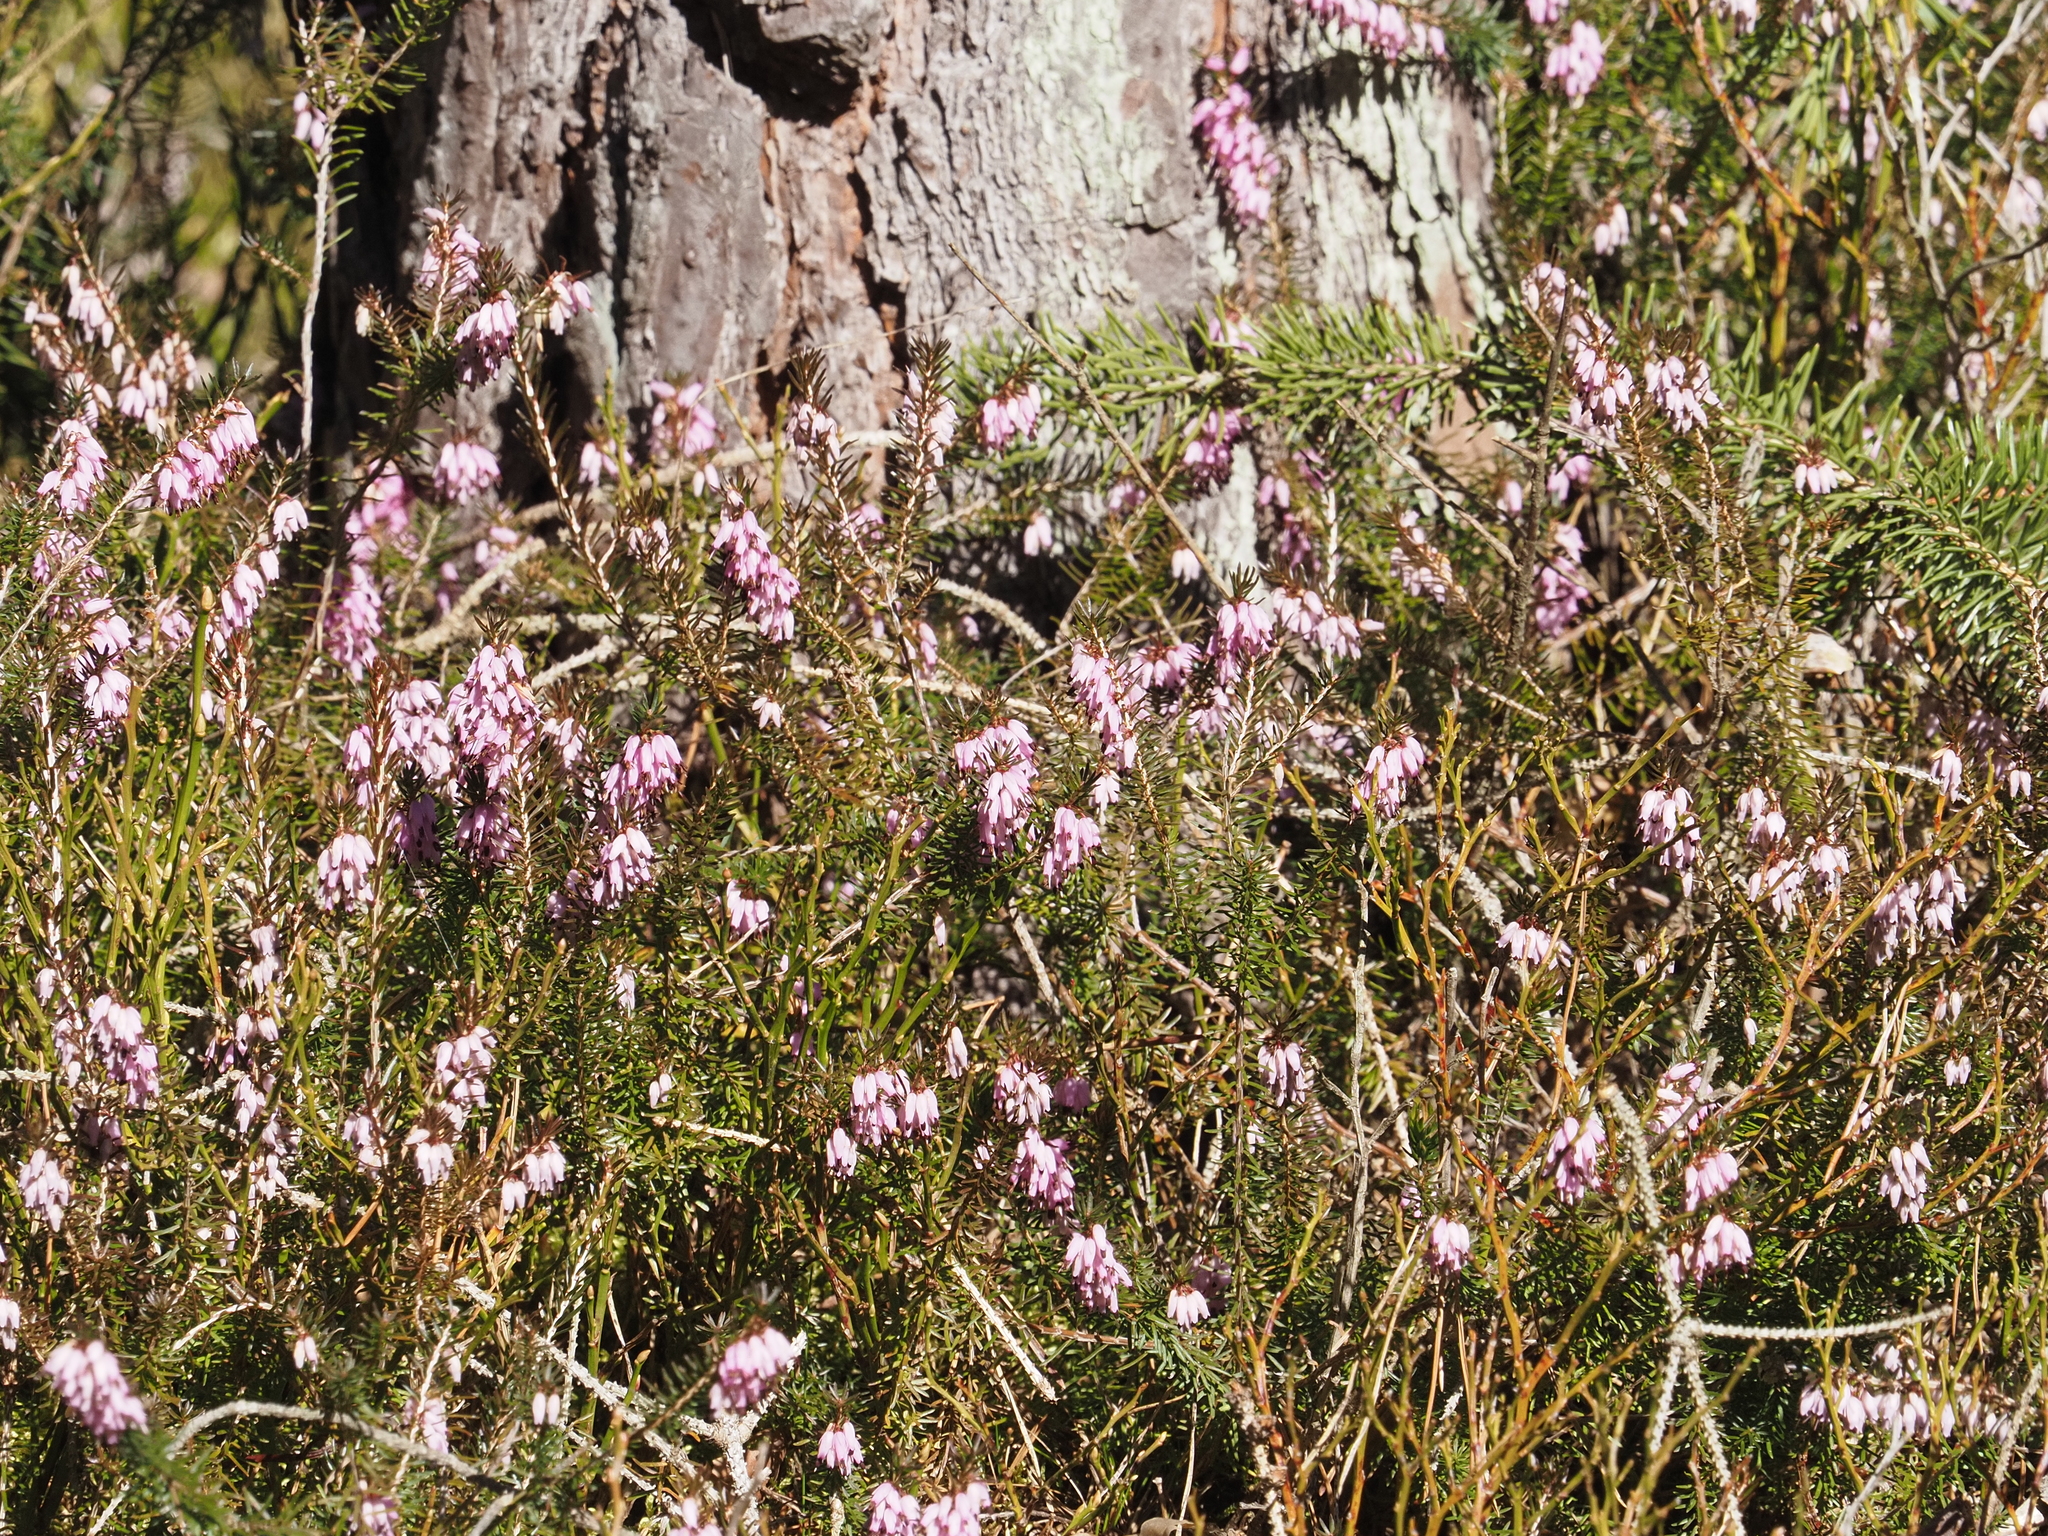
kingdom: Plantae
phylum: Tracheophyta
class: Magnoliopsida
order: Ericales
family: Ericaceae
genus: Erica
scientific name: Erica carnea
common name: Winter heath
